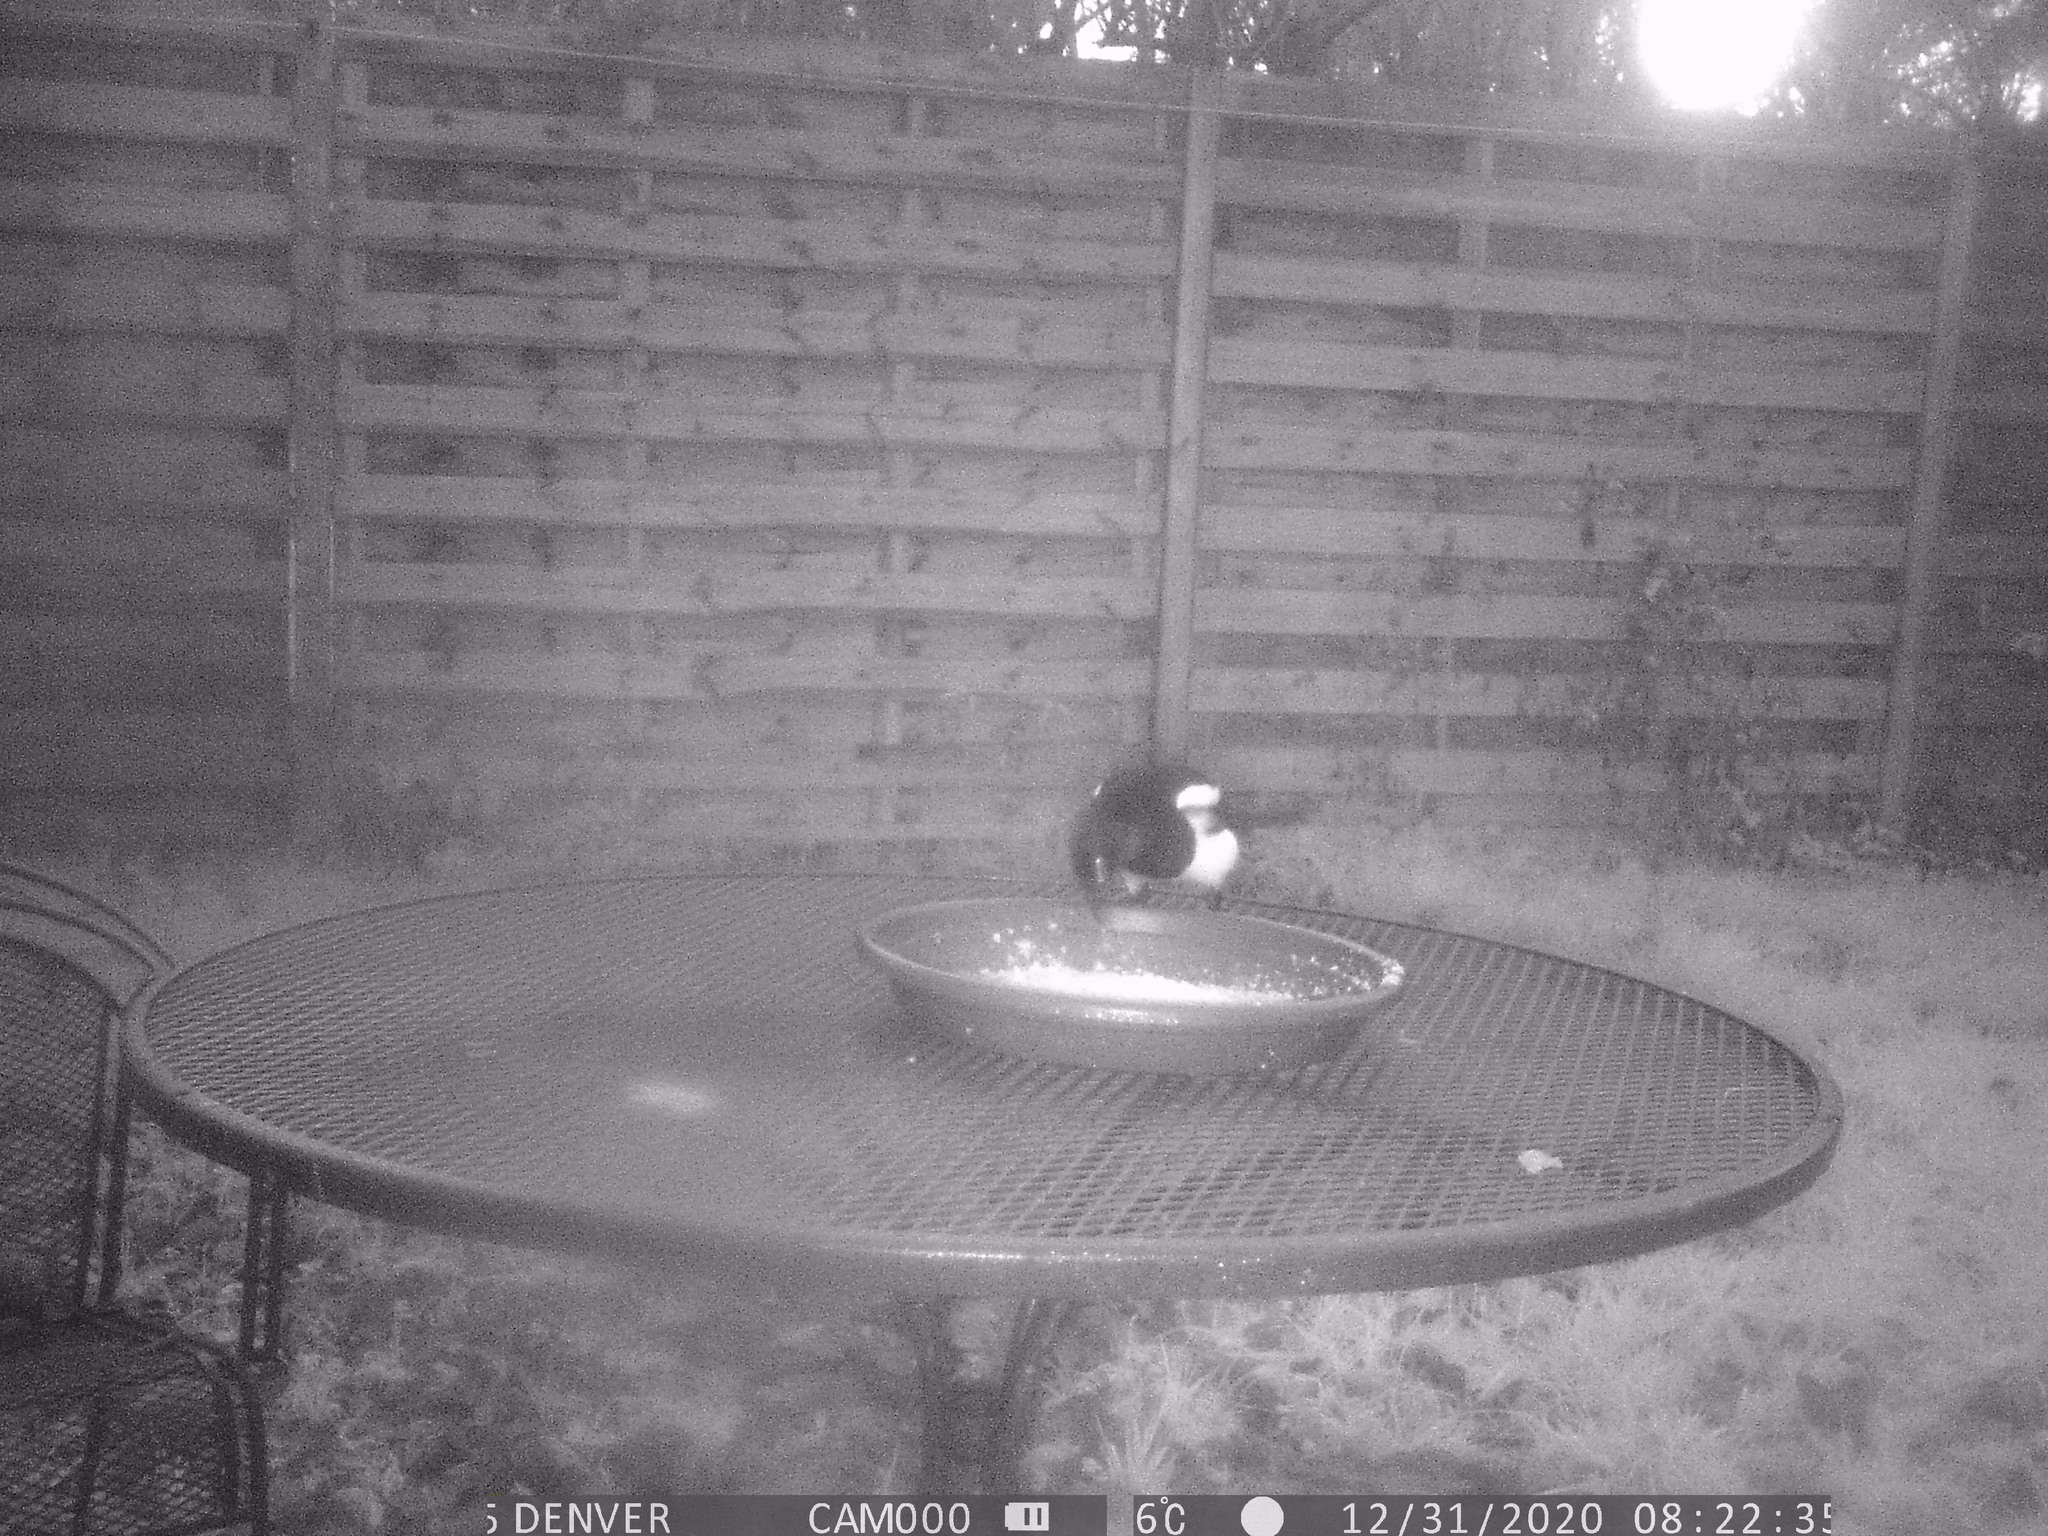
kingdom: Animalia
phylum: Chordata
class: Aves
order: Passeriformes
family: Corvidae
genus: Pica
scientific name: Pica pica
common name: Eurasian magpie
